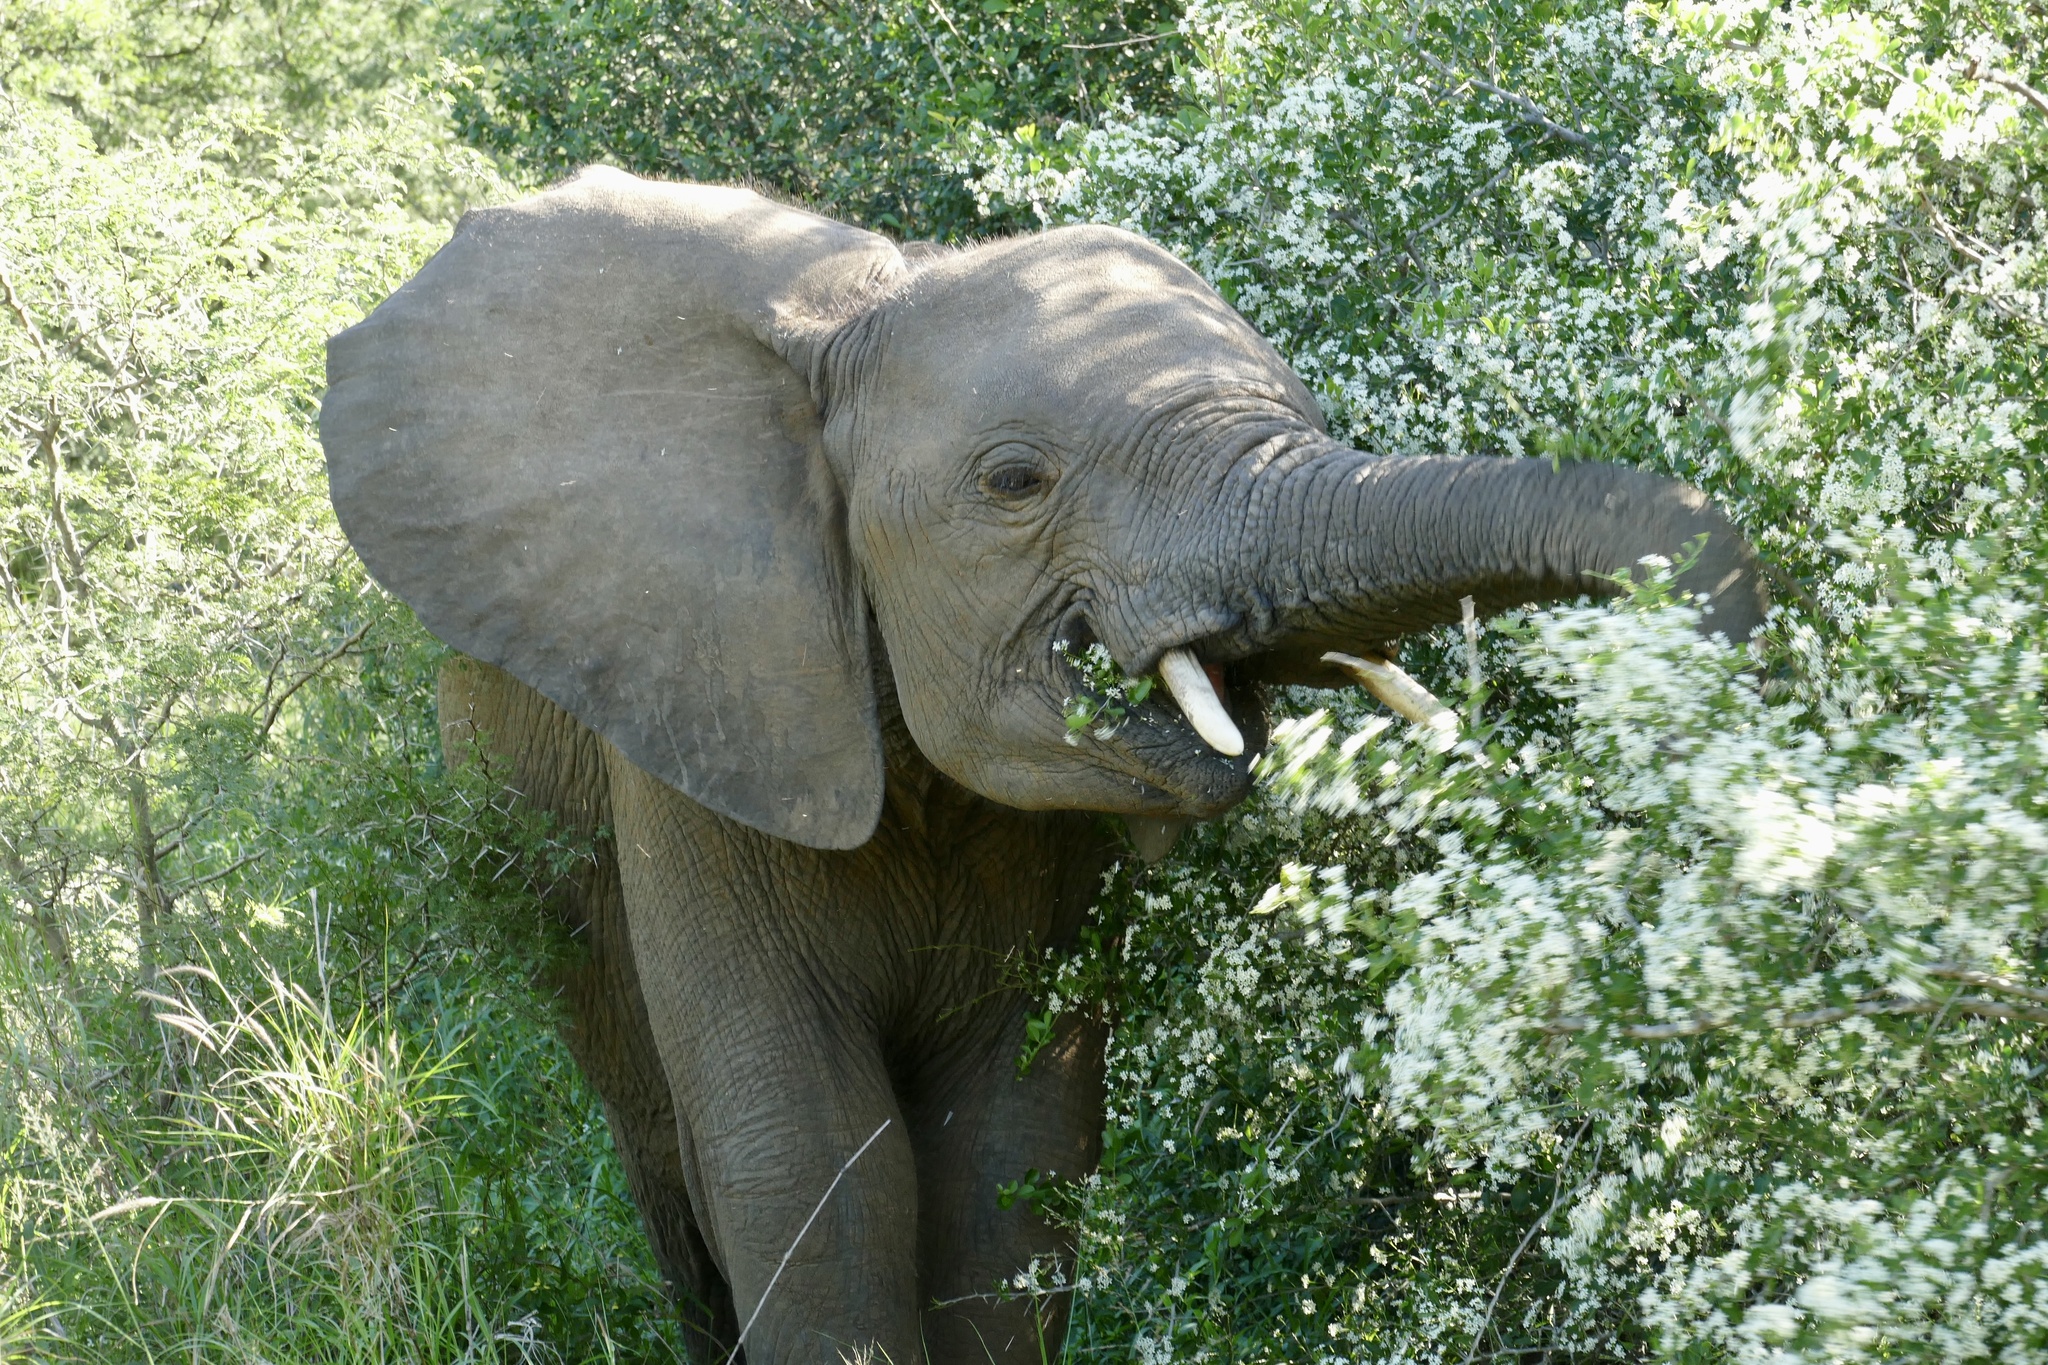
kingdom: Animalia
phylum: Chordata
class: Mammalia
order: Proboscidea
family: Elephantidae
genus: Loxodonta
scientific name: Loxodonta africana
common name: African elephant
